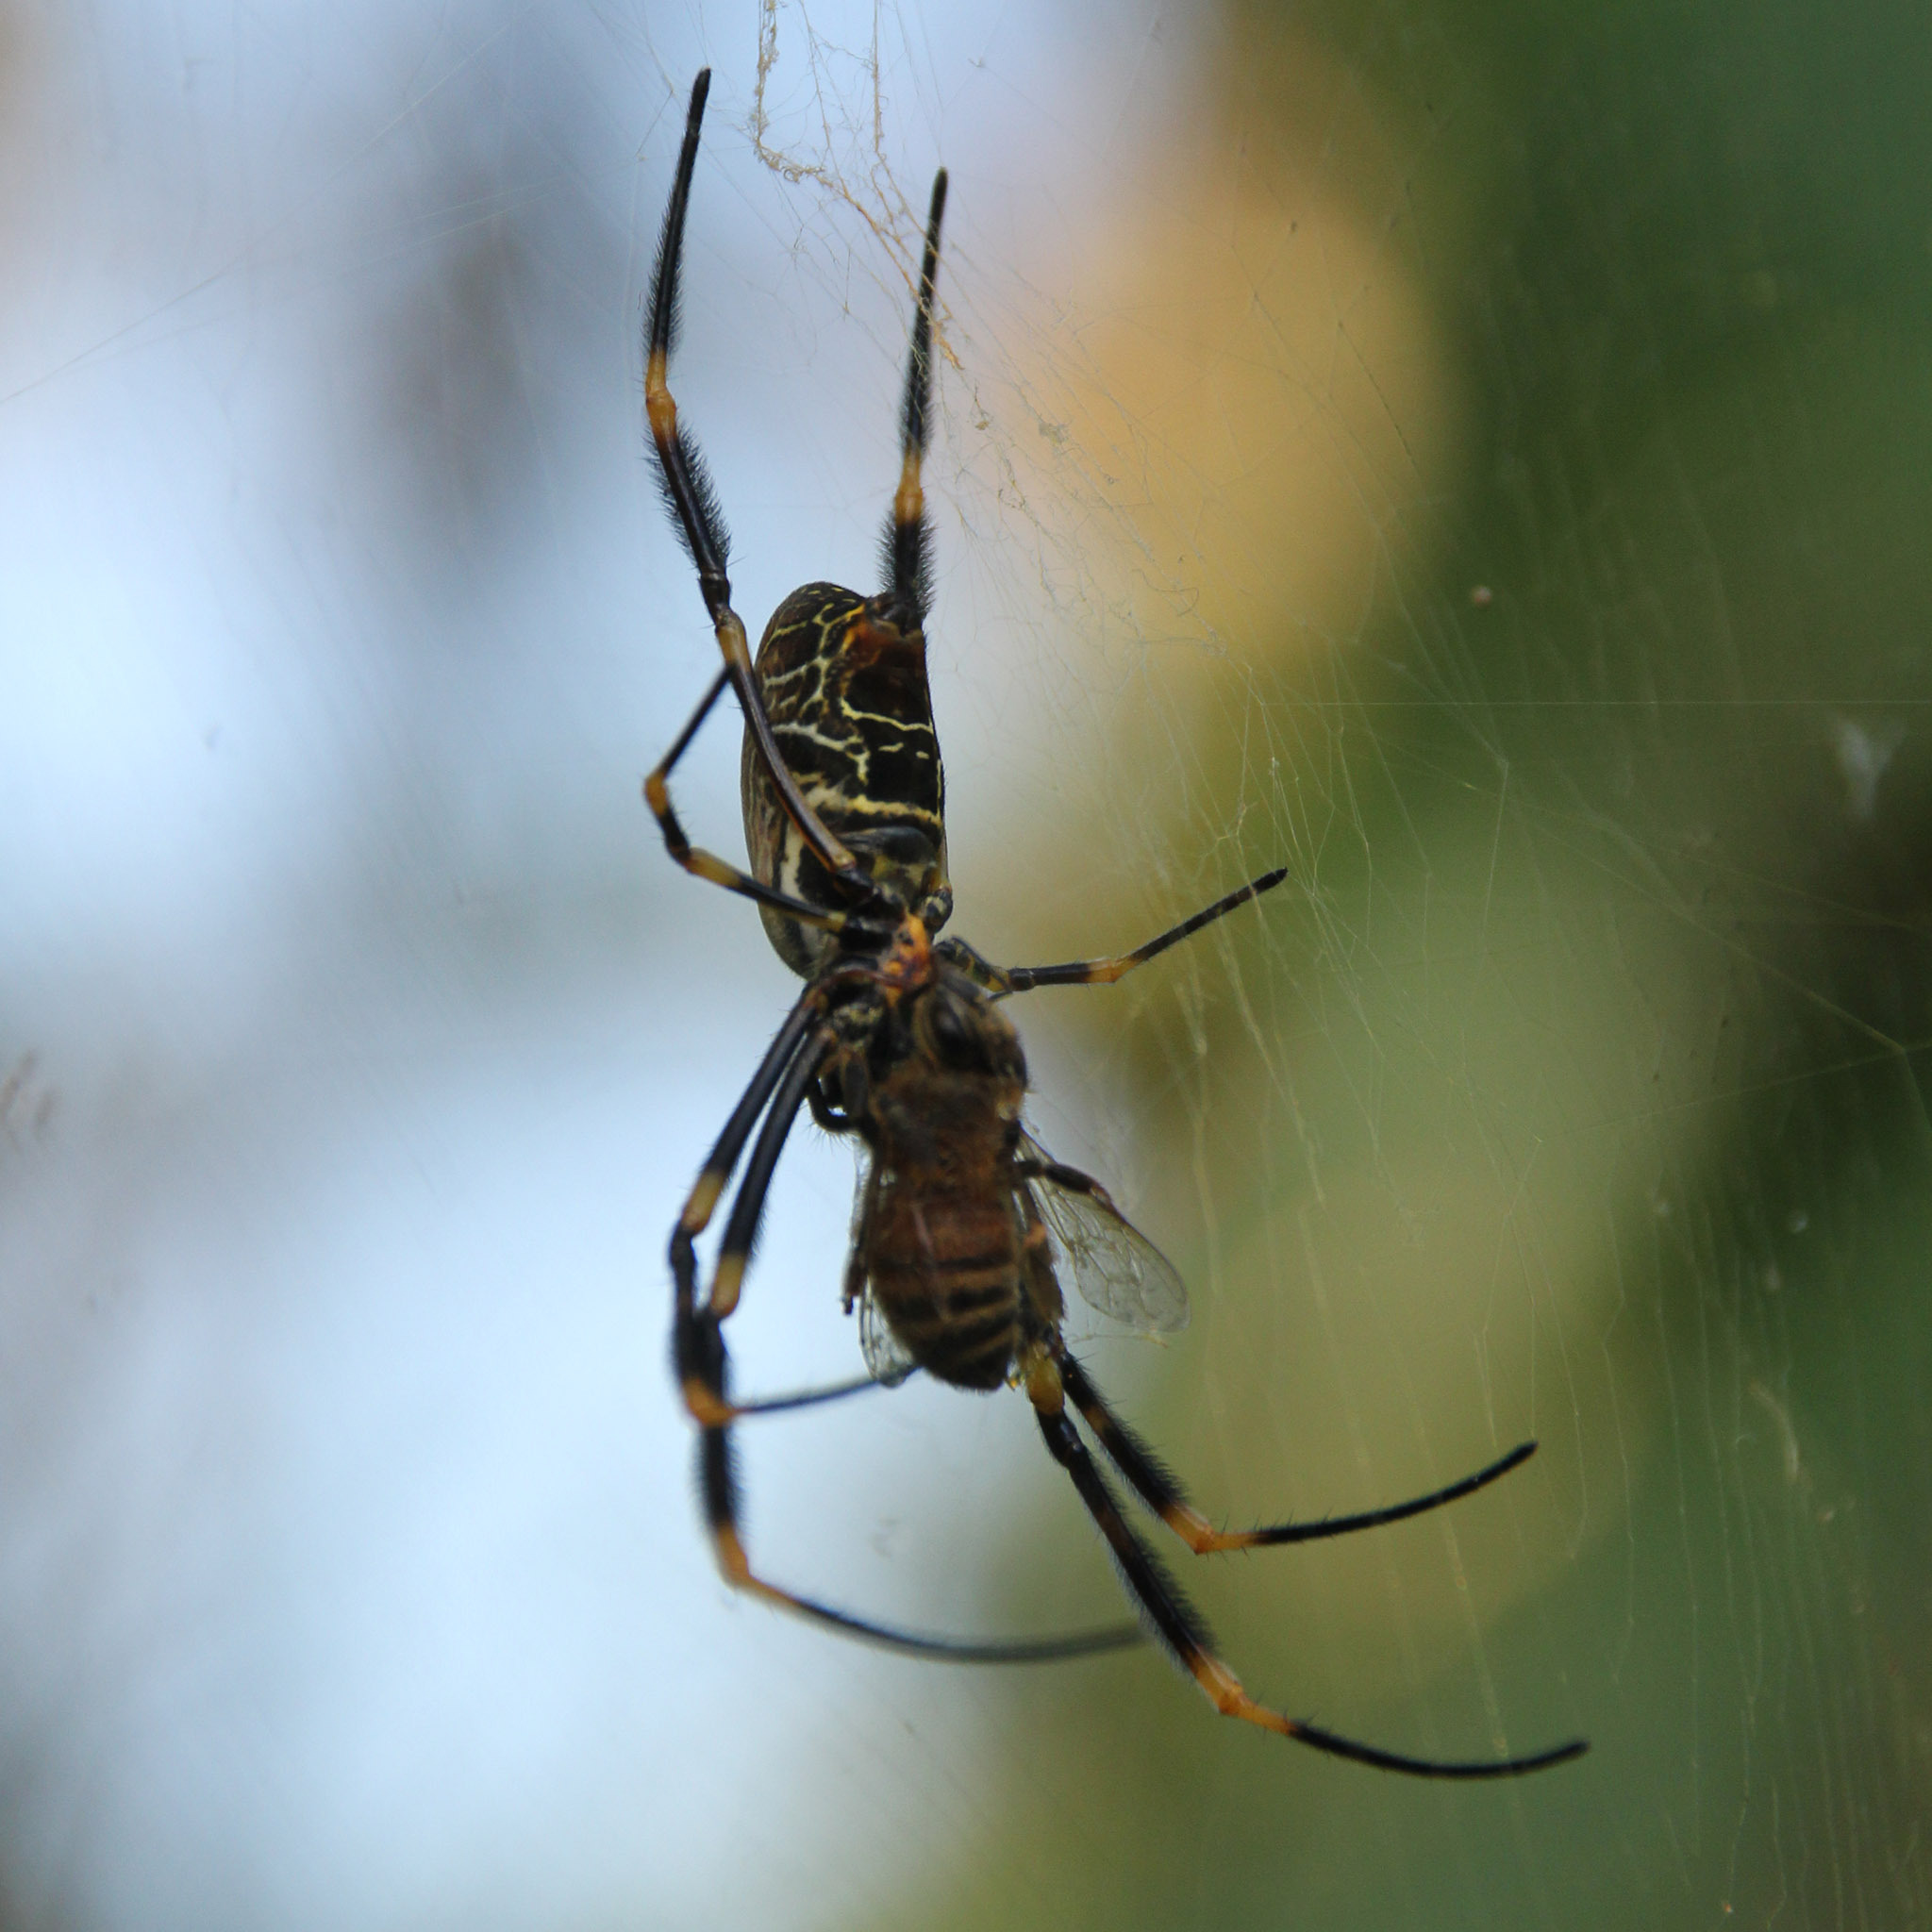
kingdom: Animalia
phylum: Arthropoda
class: Arachnida
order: Araneae
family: Araneidae
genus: Trichonephila
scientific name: Trichonephila plumipes
